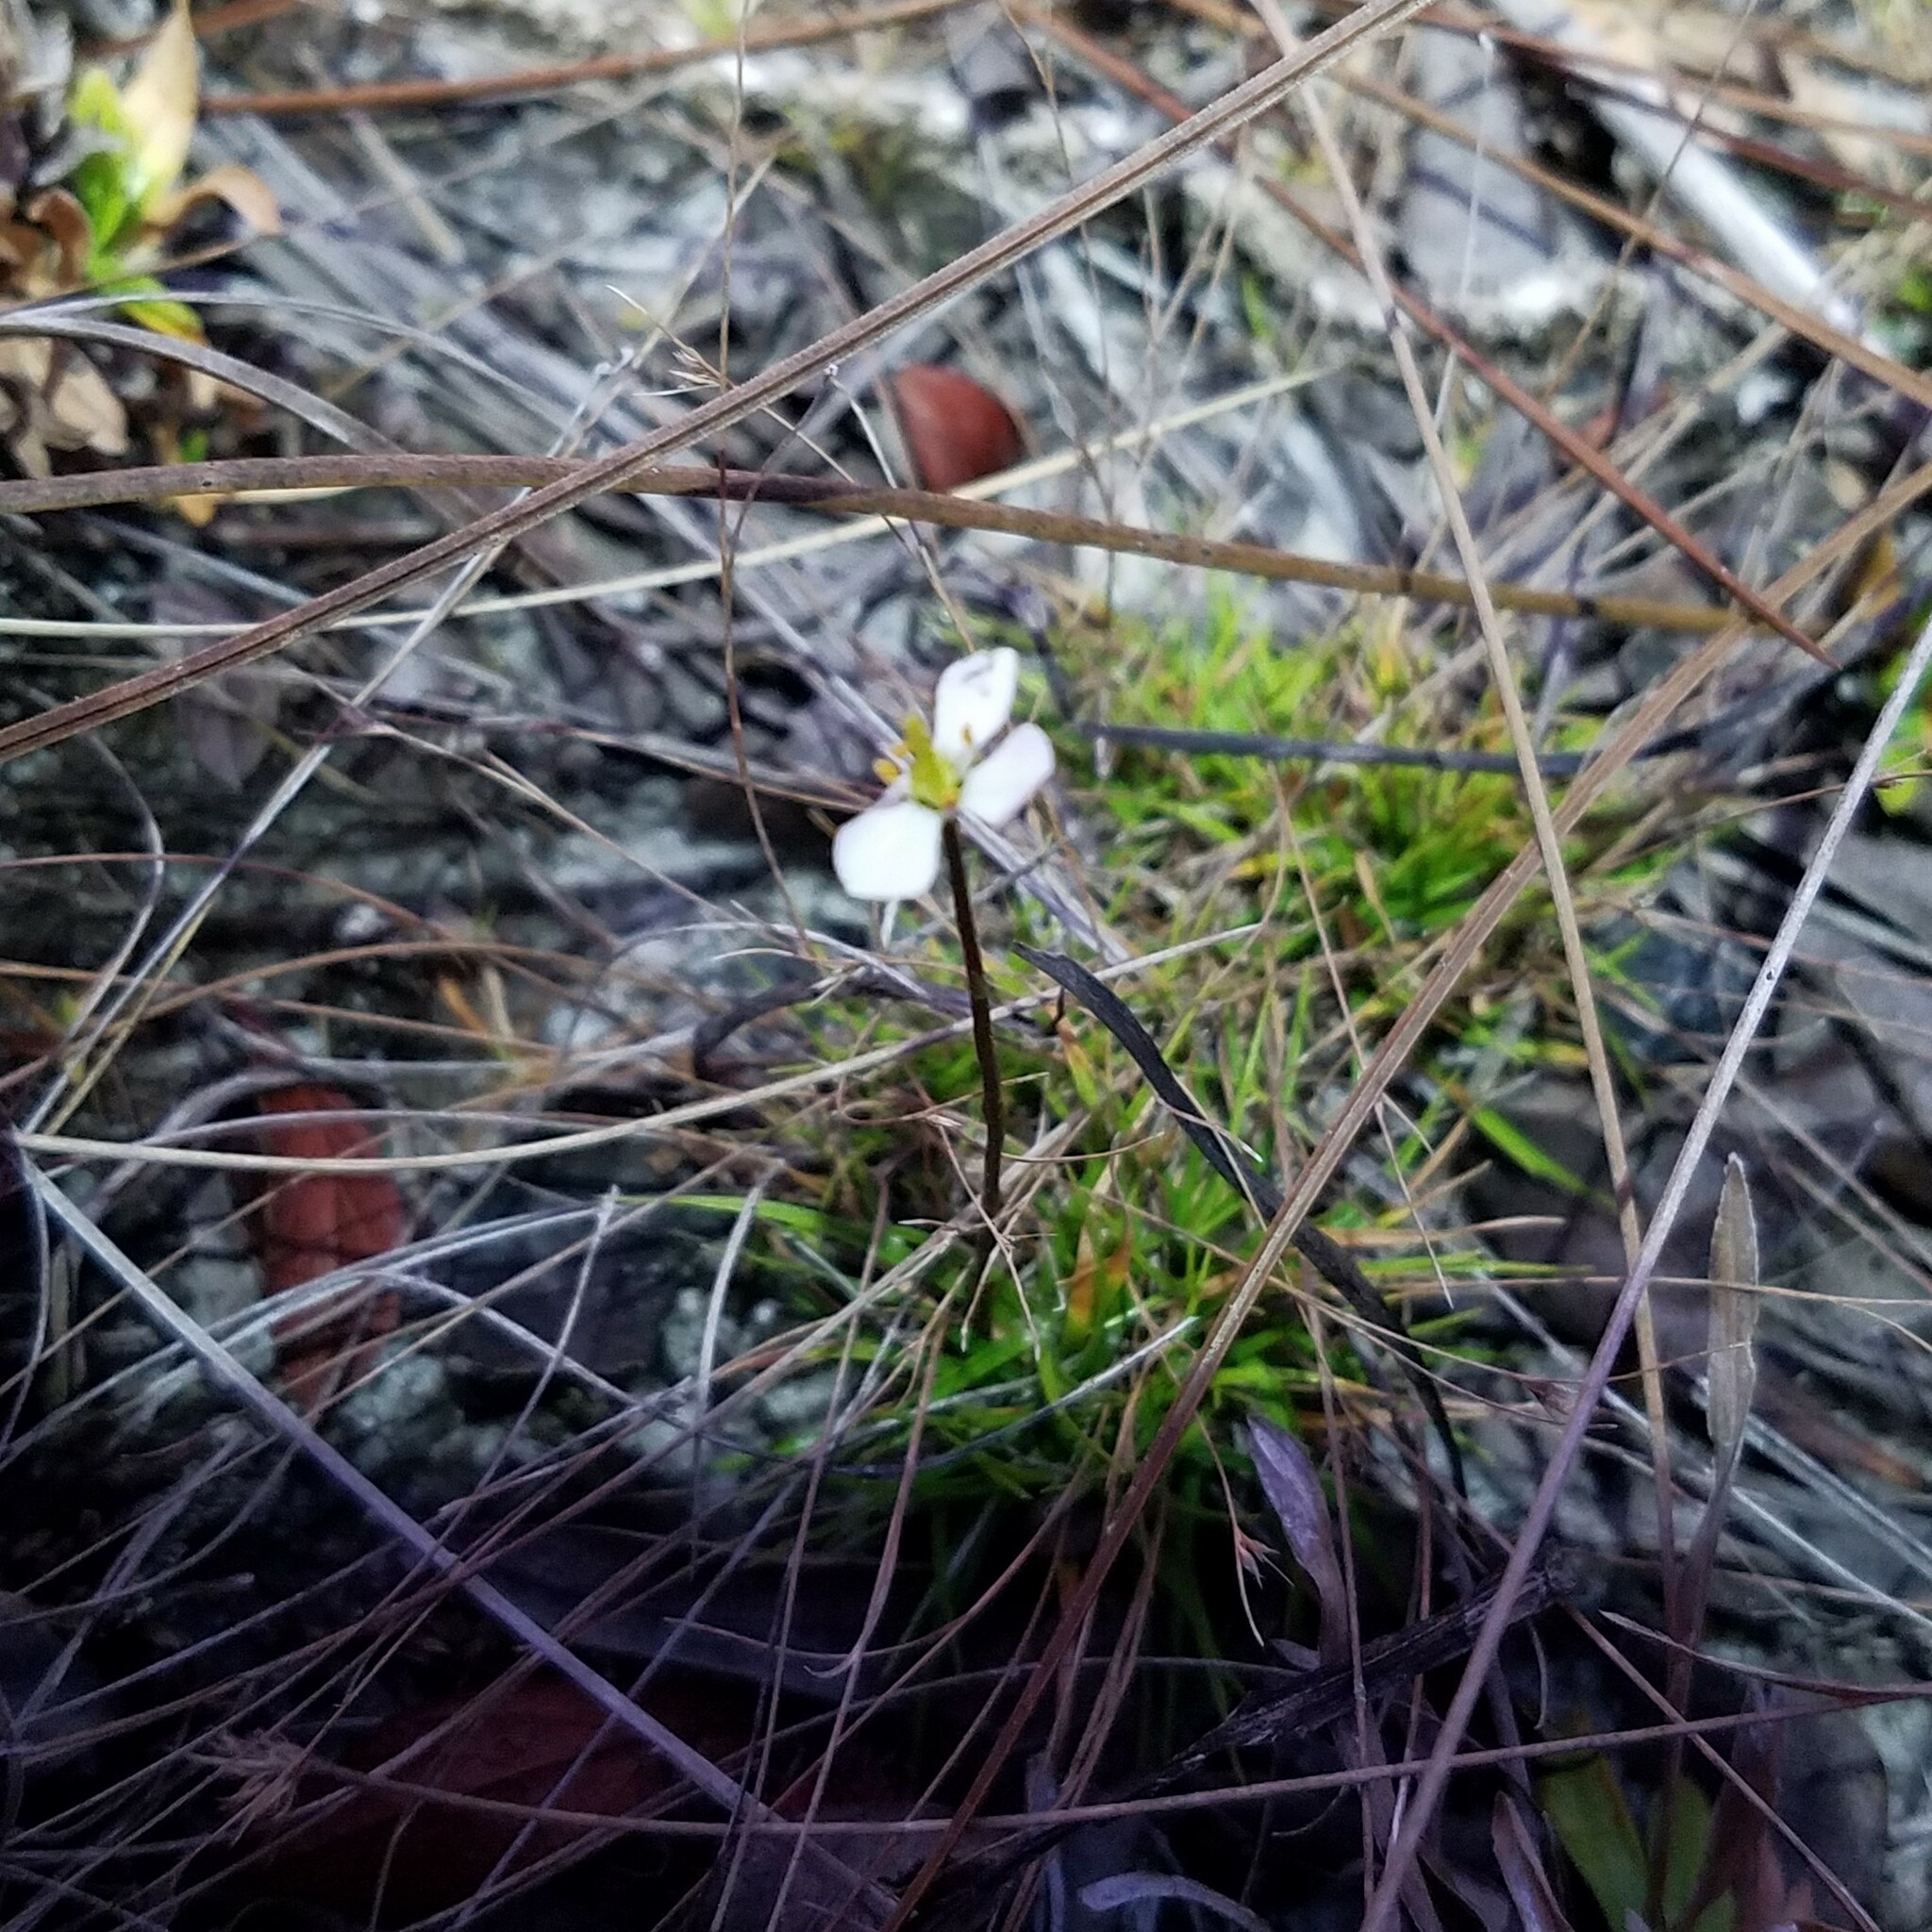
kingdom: Plantae
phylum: Tracheophyta
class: Magnoliopsida
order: Gentianales
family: Gentianaceae
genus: Bartonia
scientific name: Bartonia verna
